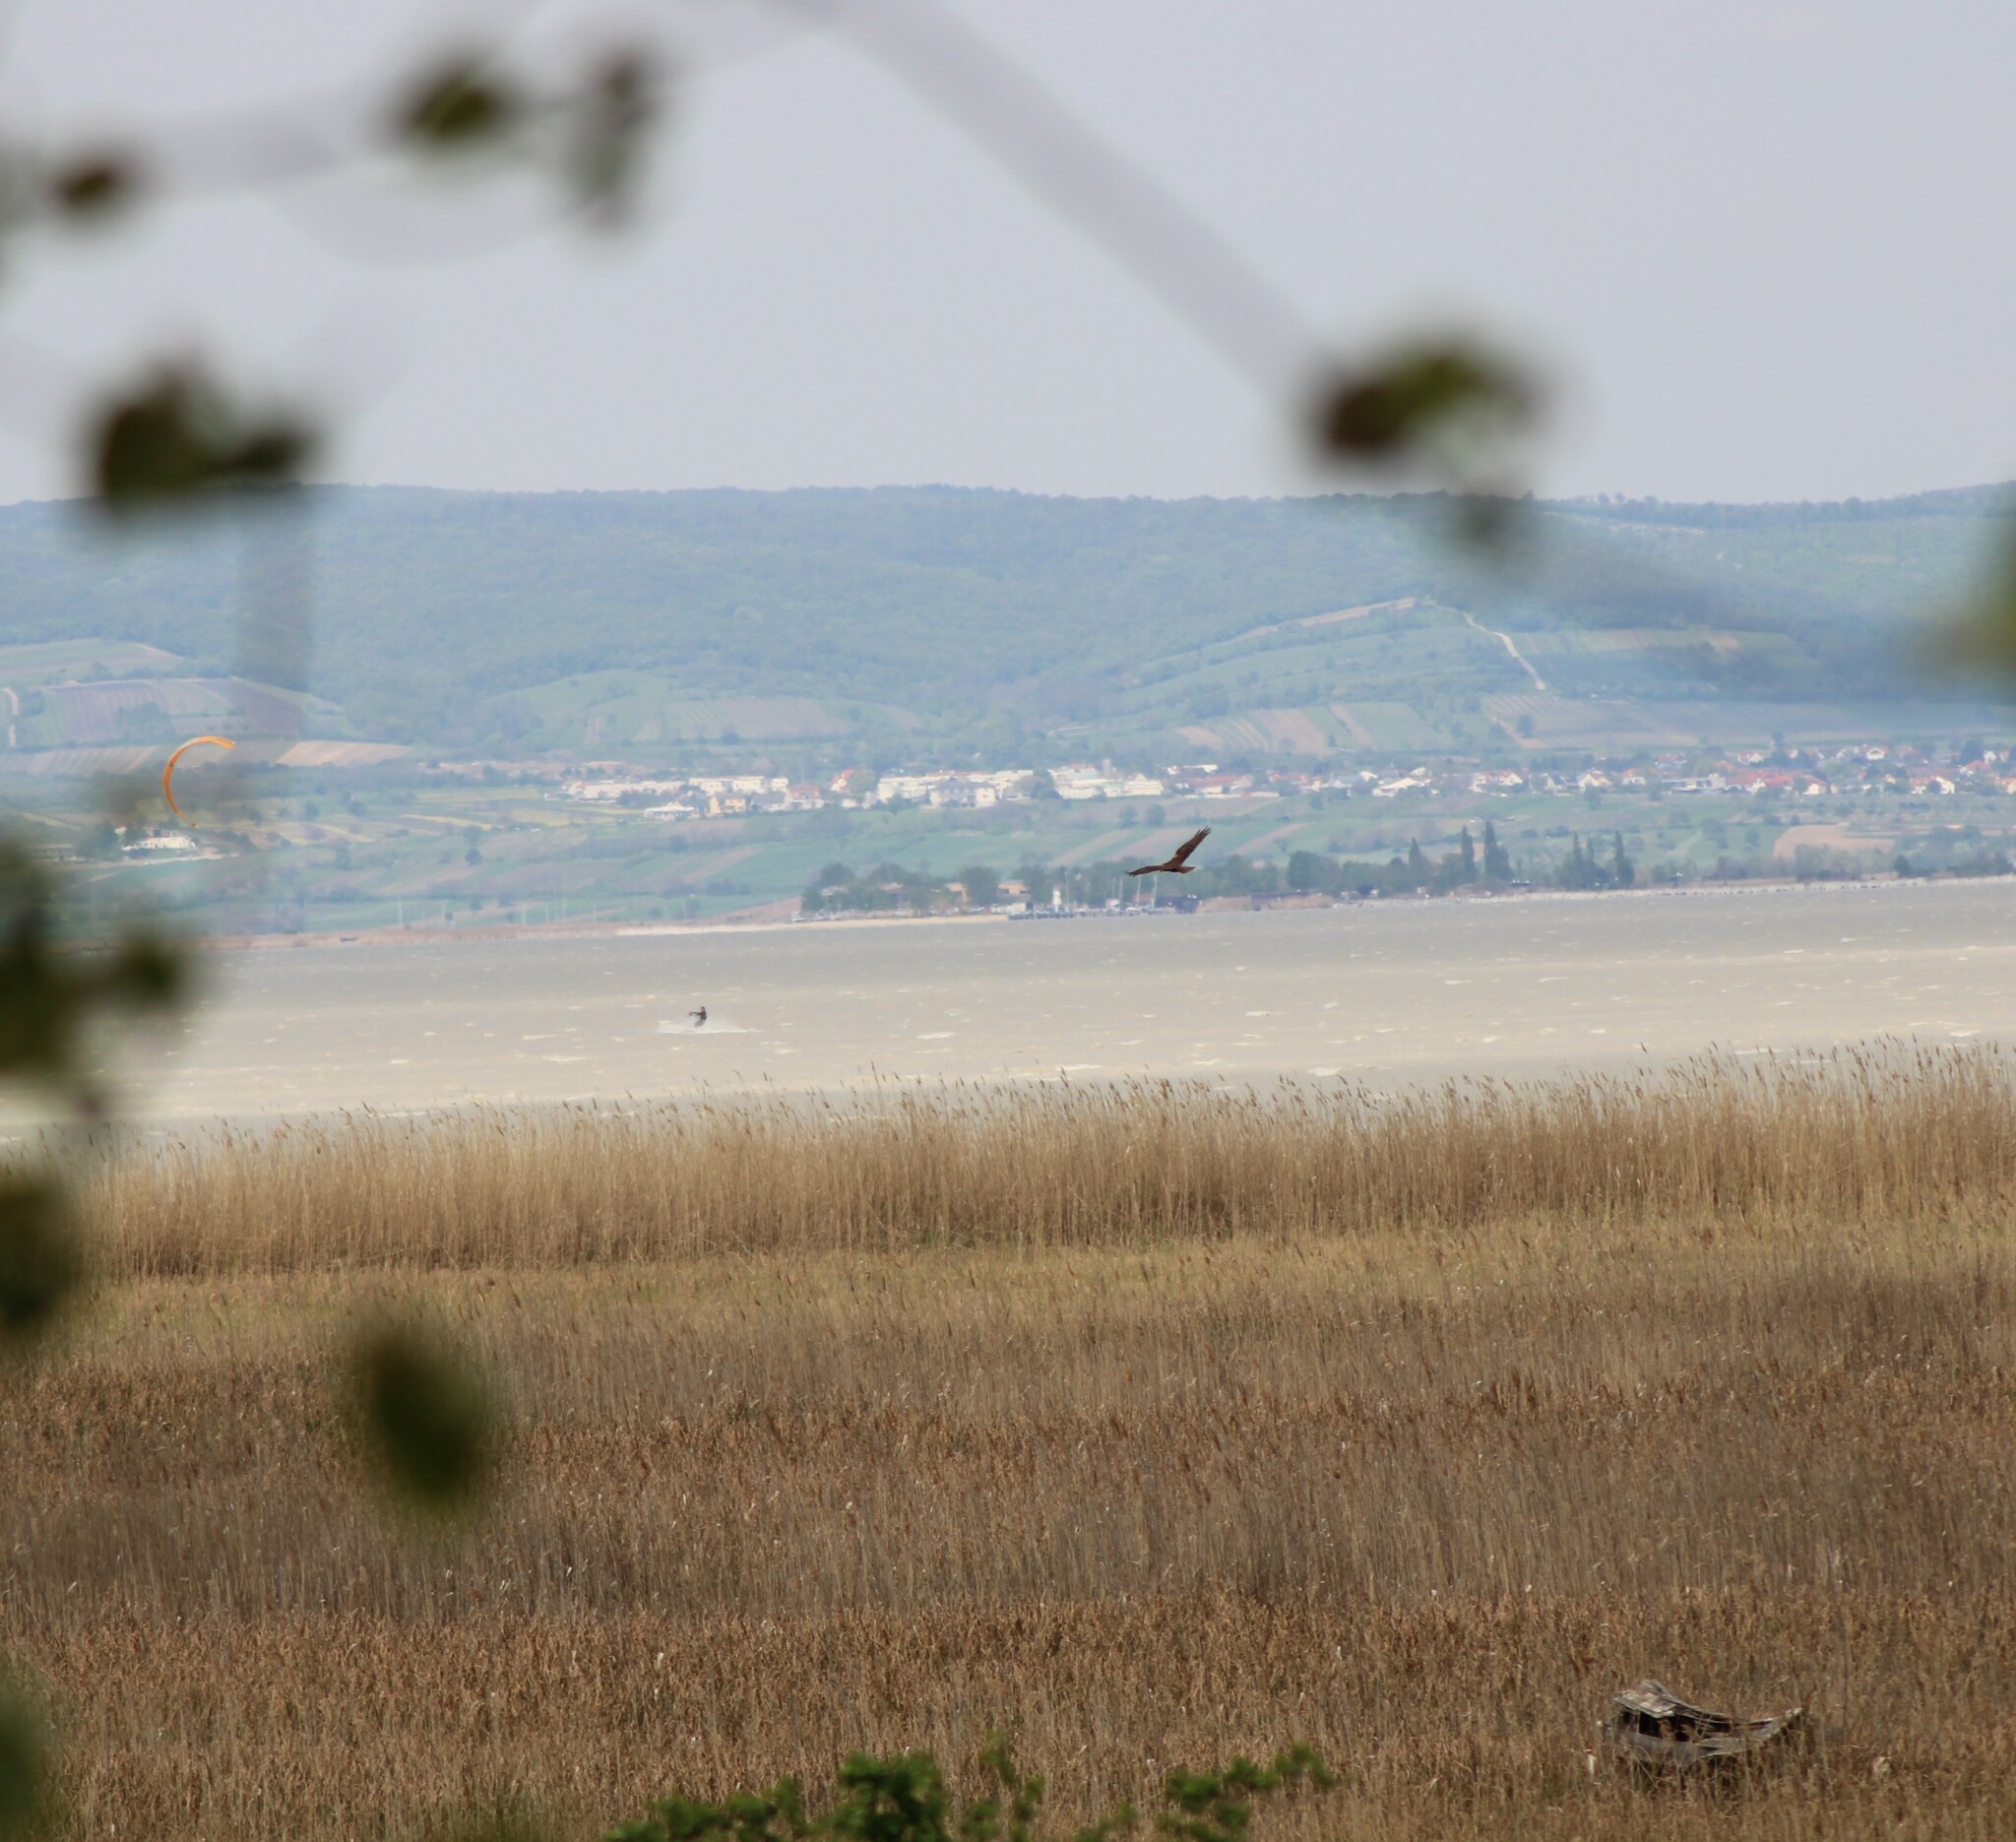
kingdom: Animalia
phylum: Chordata
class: Aves
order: Accipitriformes
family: Accipitridae
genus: Circus
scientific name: Circus aeruginosus
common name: Western marsh harrier
